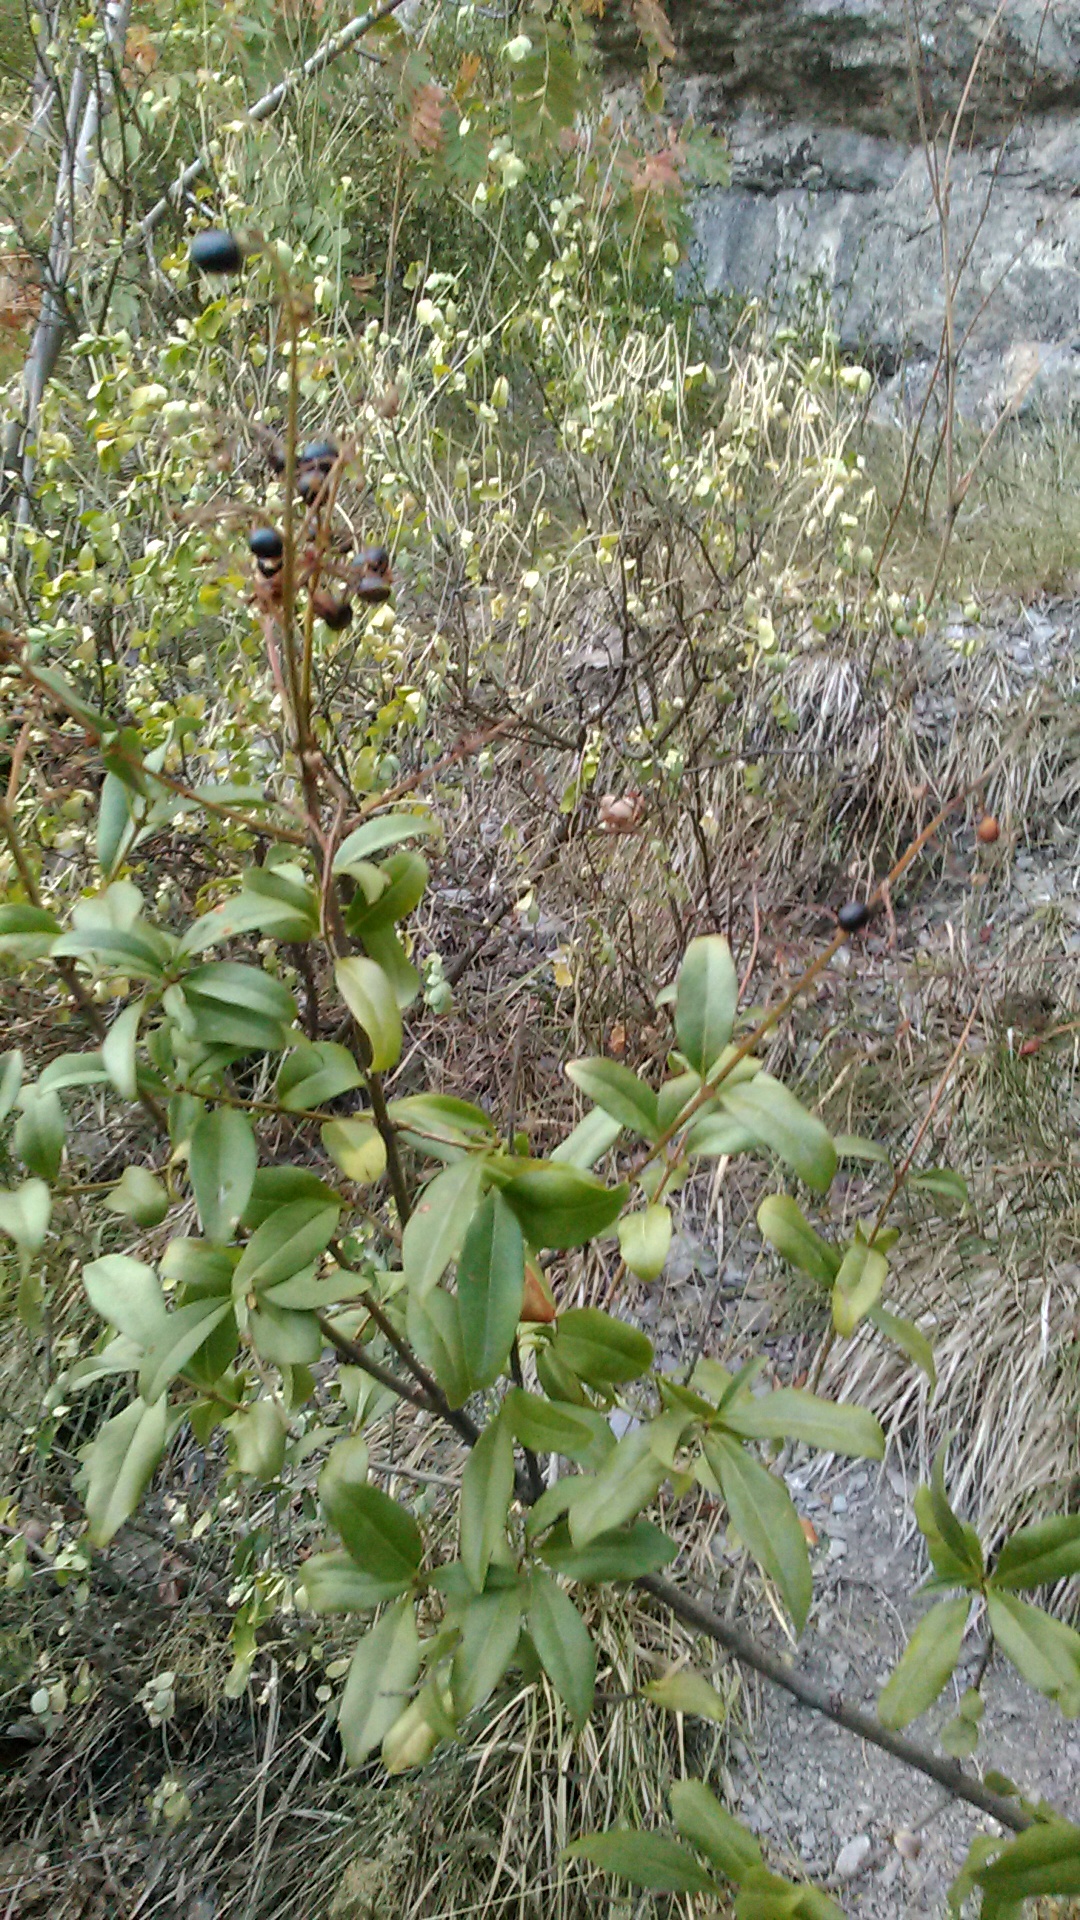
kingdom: Plantae
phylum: Tracheophyta
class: Magnoliopsida
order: Lamiales
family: Oleaceae
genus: Ligustrum
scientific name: Ligustrum vulgare
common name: Wild privet
